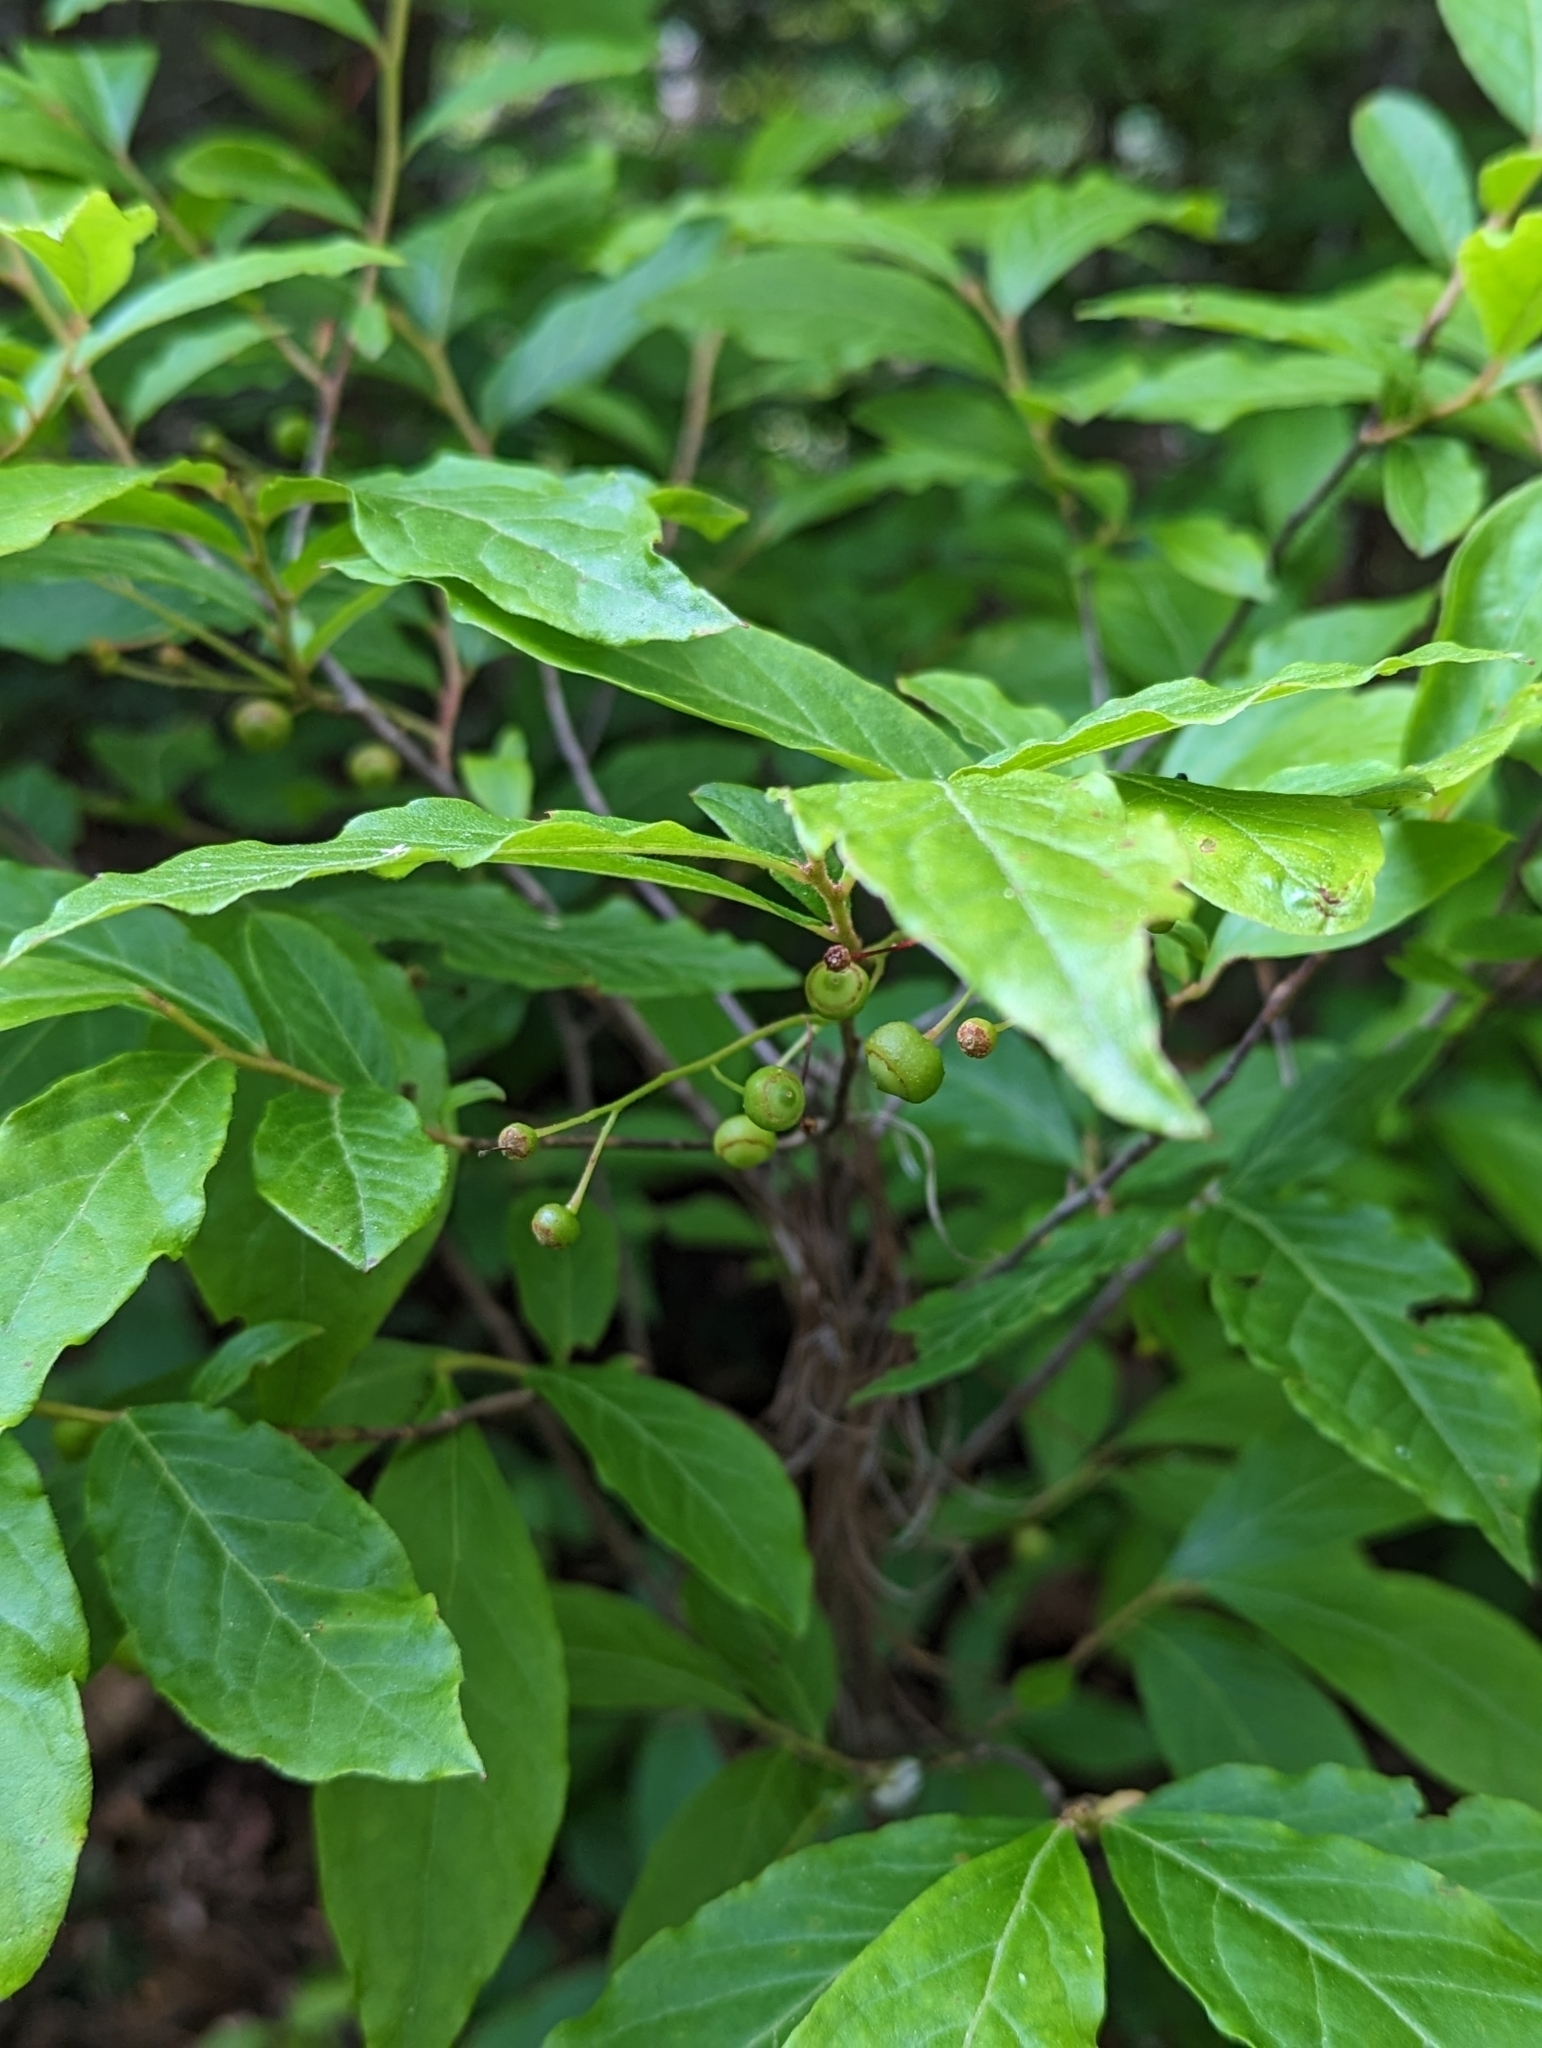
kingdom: Plantae
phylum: Tracheophyta
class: Magnoliopsida
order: Santalales
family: Cervantesiaceae
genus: Pyrularia
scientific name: Pyrularia pubera
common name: Oilnut
